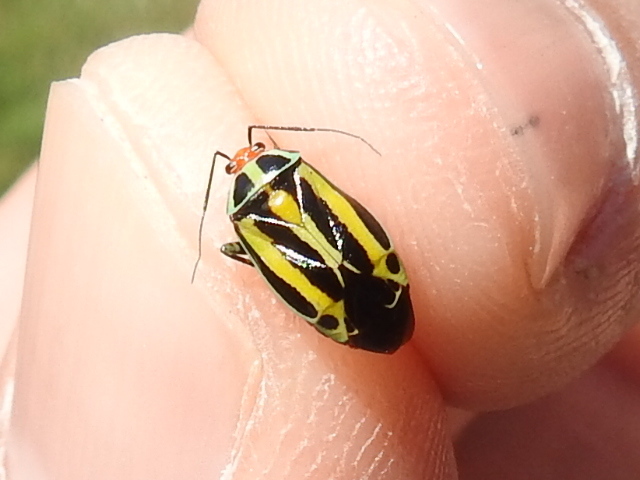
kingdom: Animalia
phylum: Arthropoda
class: Insecta
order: Hemiptera
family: Miridae
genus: Poecilocapsus
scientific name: Poecilocapsus lineatus
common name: Four-lined plant bug
